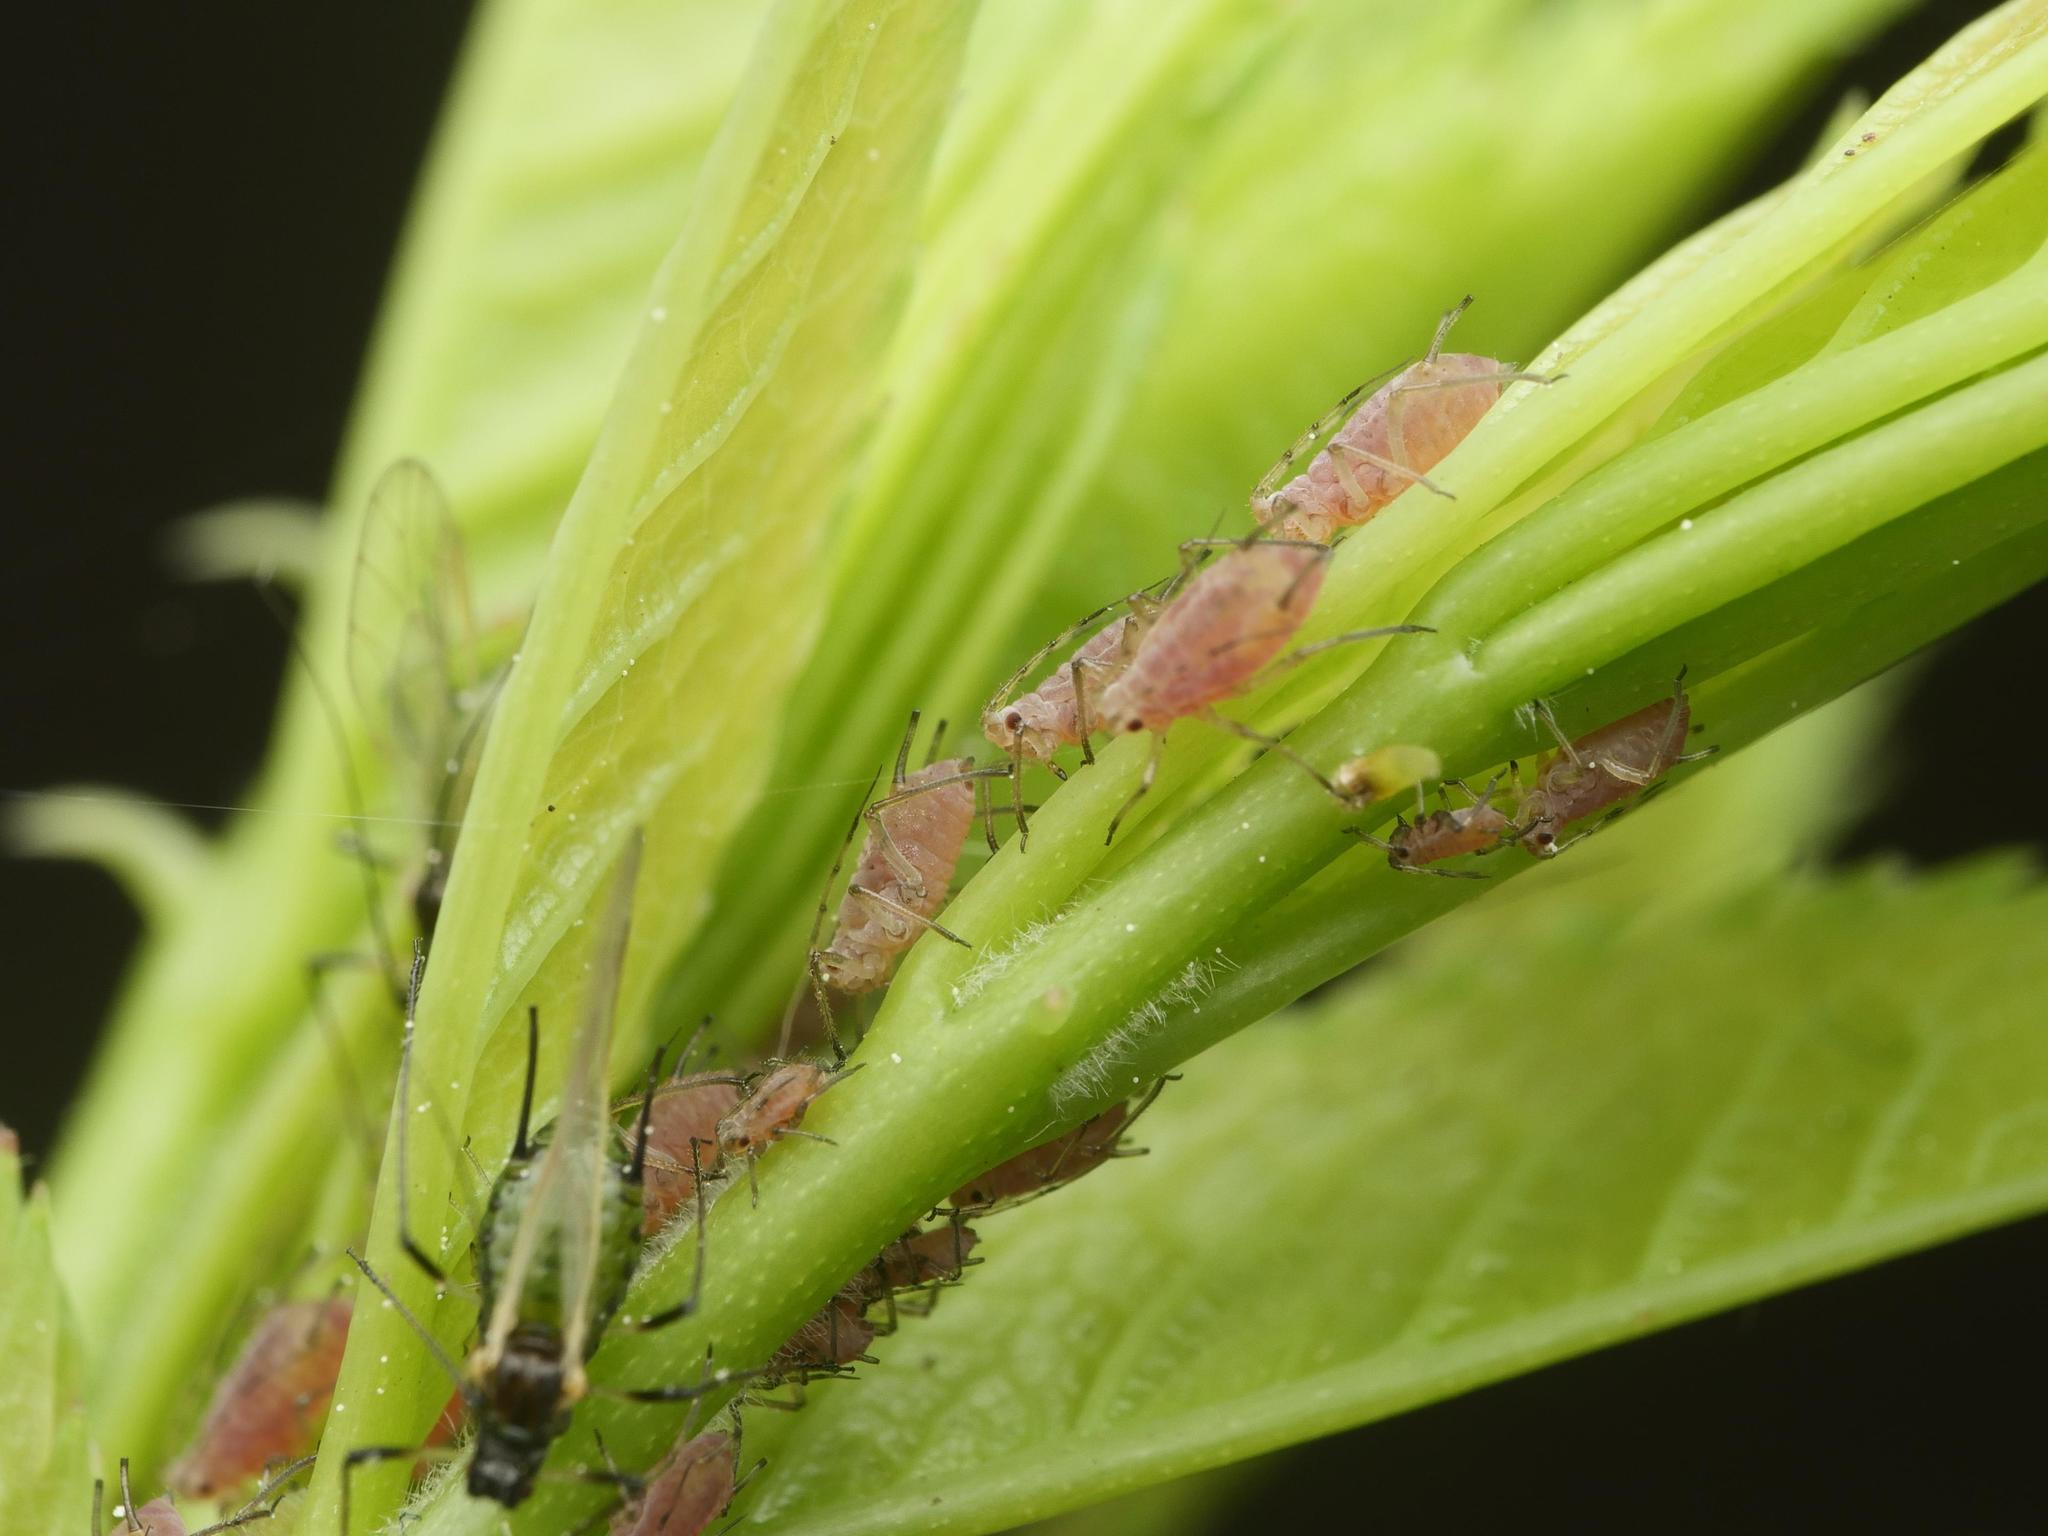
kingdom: Animalia
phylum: Arthropoda
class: Insecta
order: Hemiptera
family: Aphididae
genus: Macrosiphum
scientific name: Macrosiphum rosae
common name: Rose aphid
